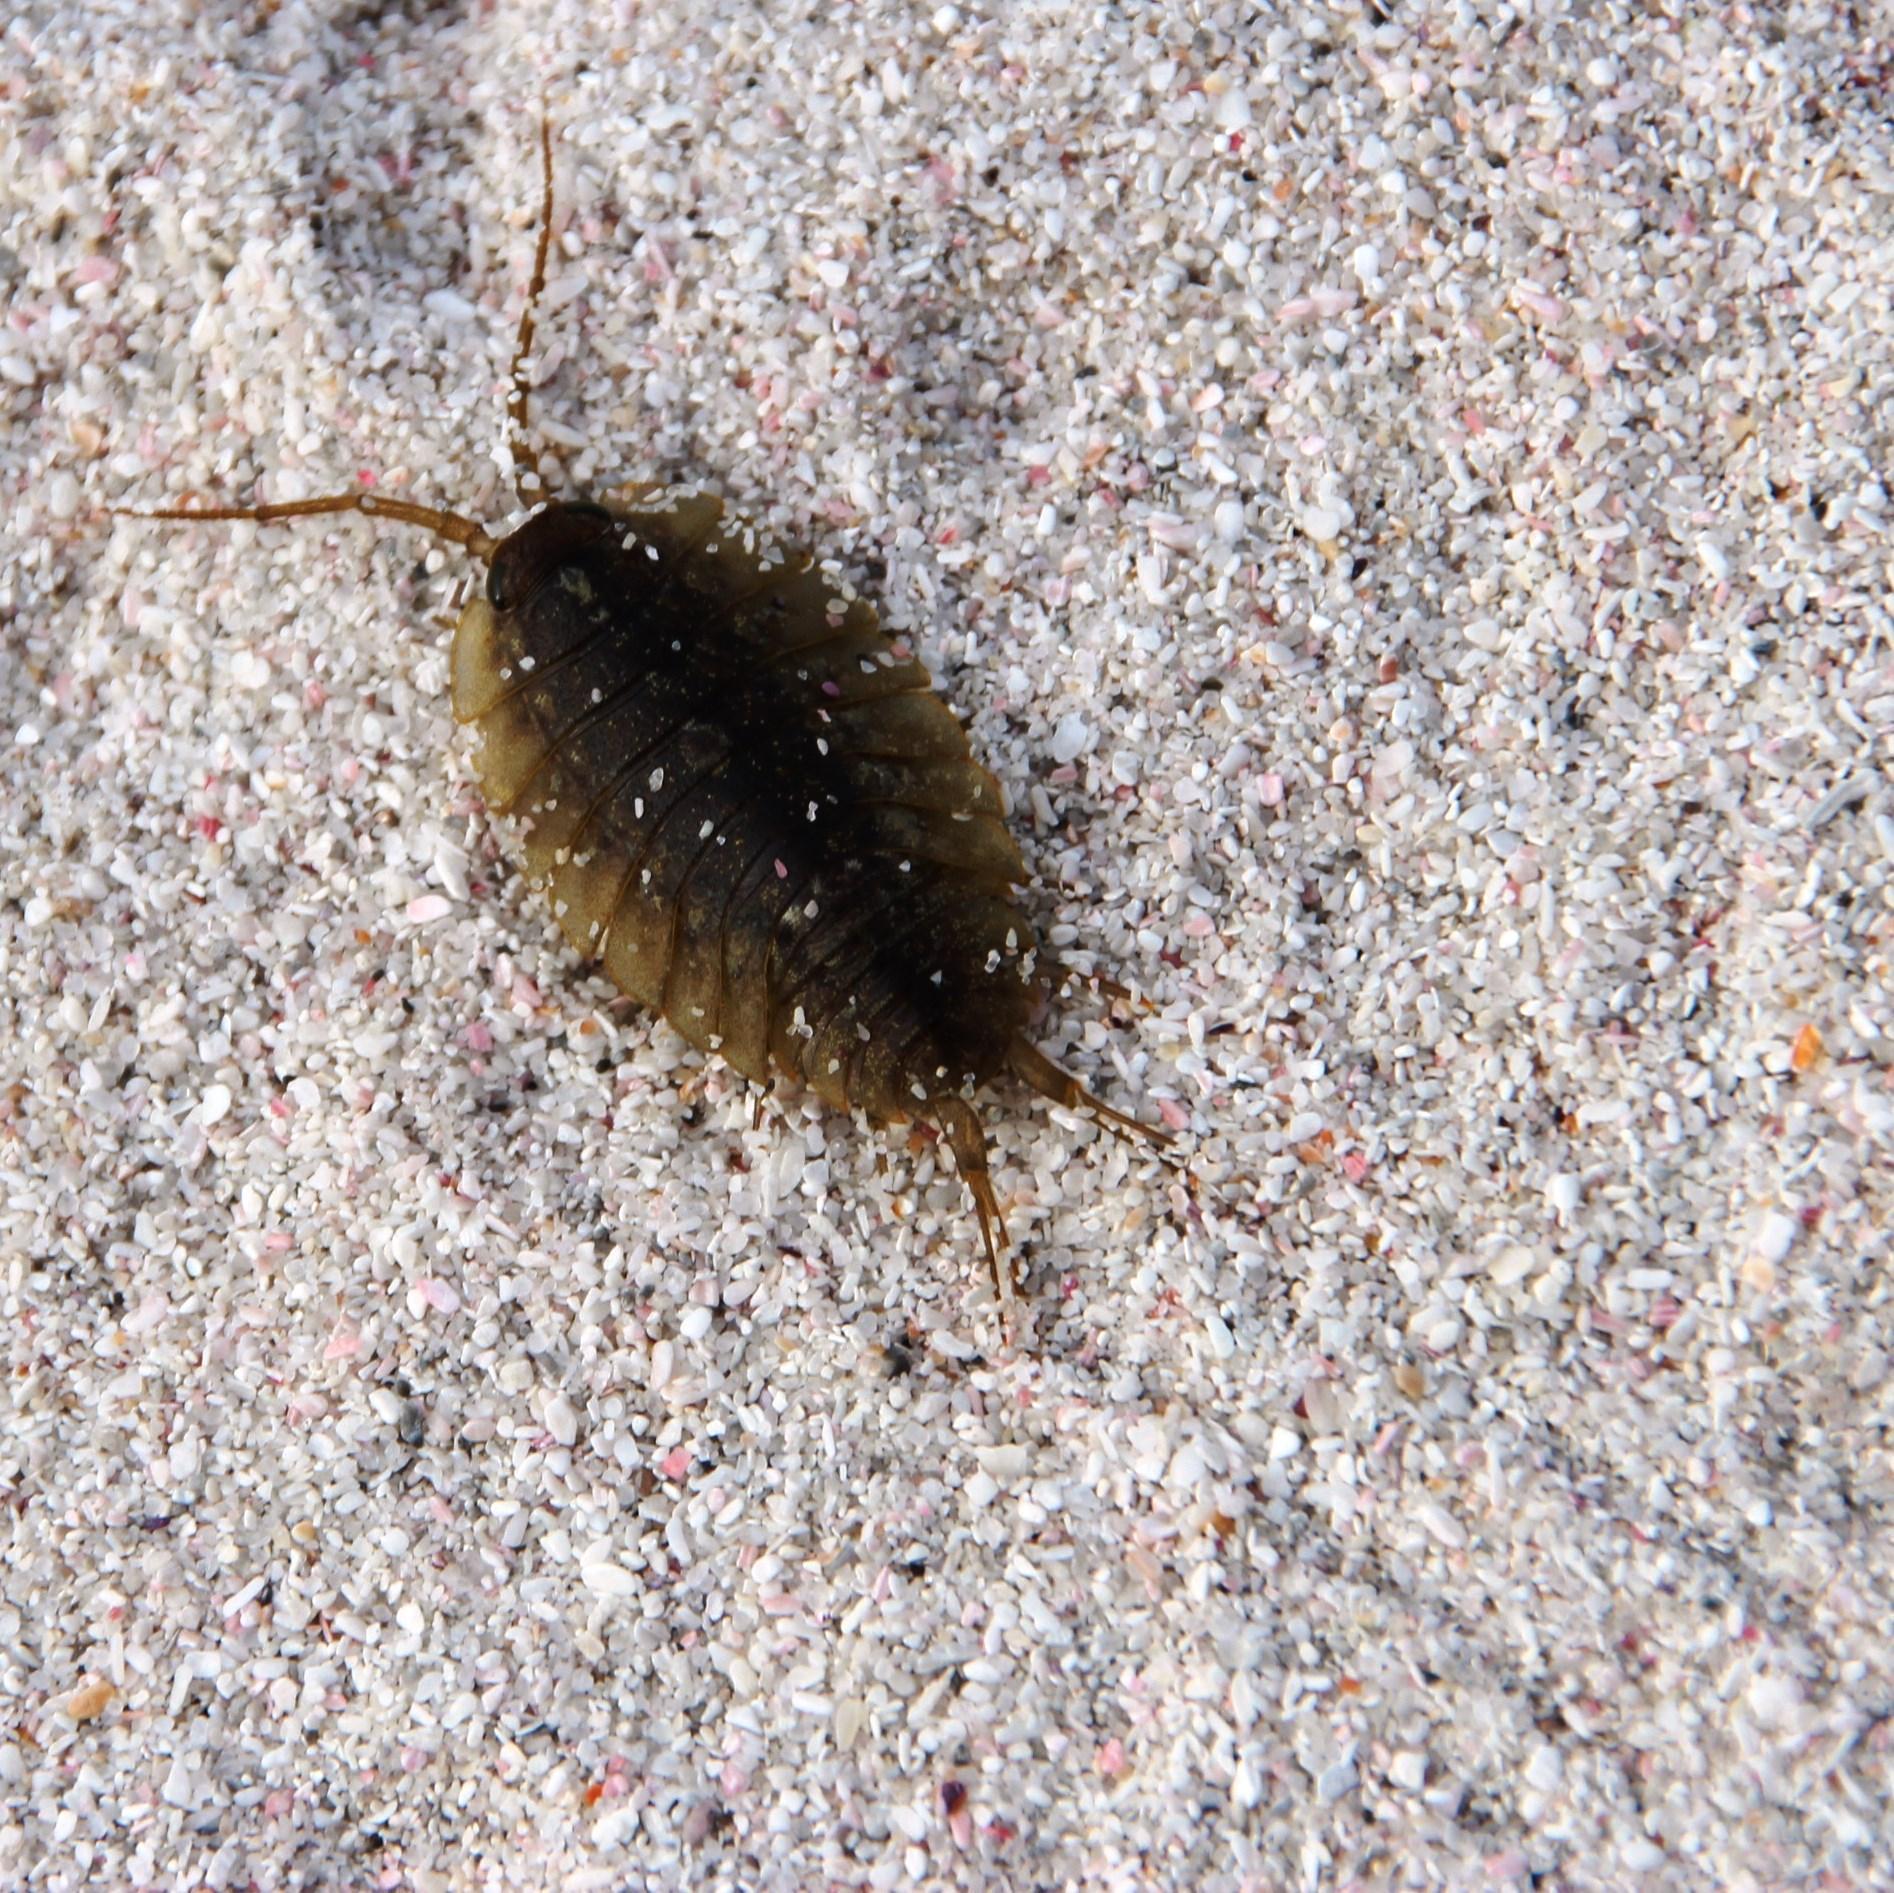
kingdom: Animalia
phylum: Arthropoda
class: Malacostraca
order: Isopoda
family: Ligiidae
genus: Ligia
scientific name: Ligia dilatata
